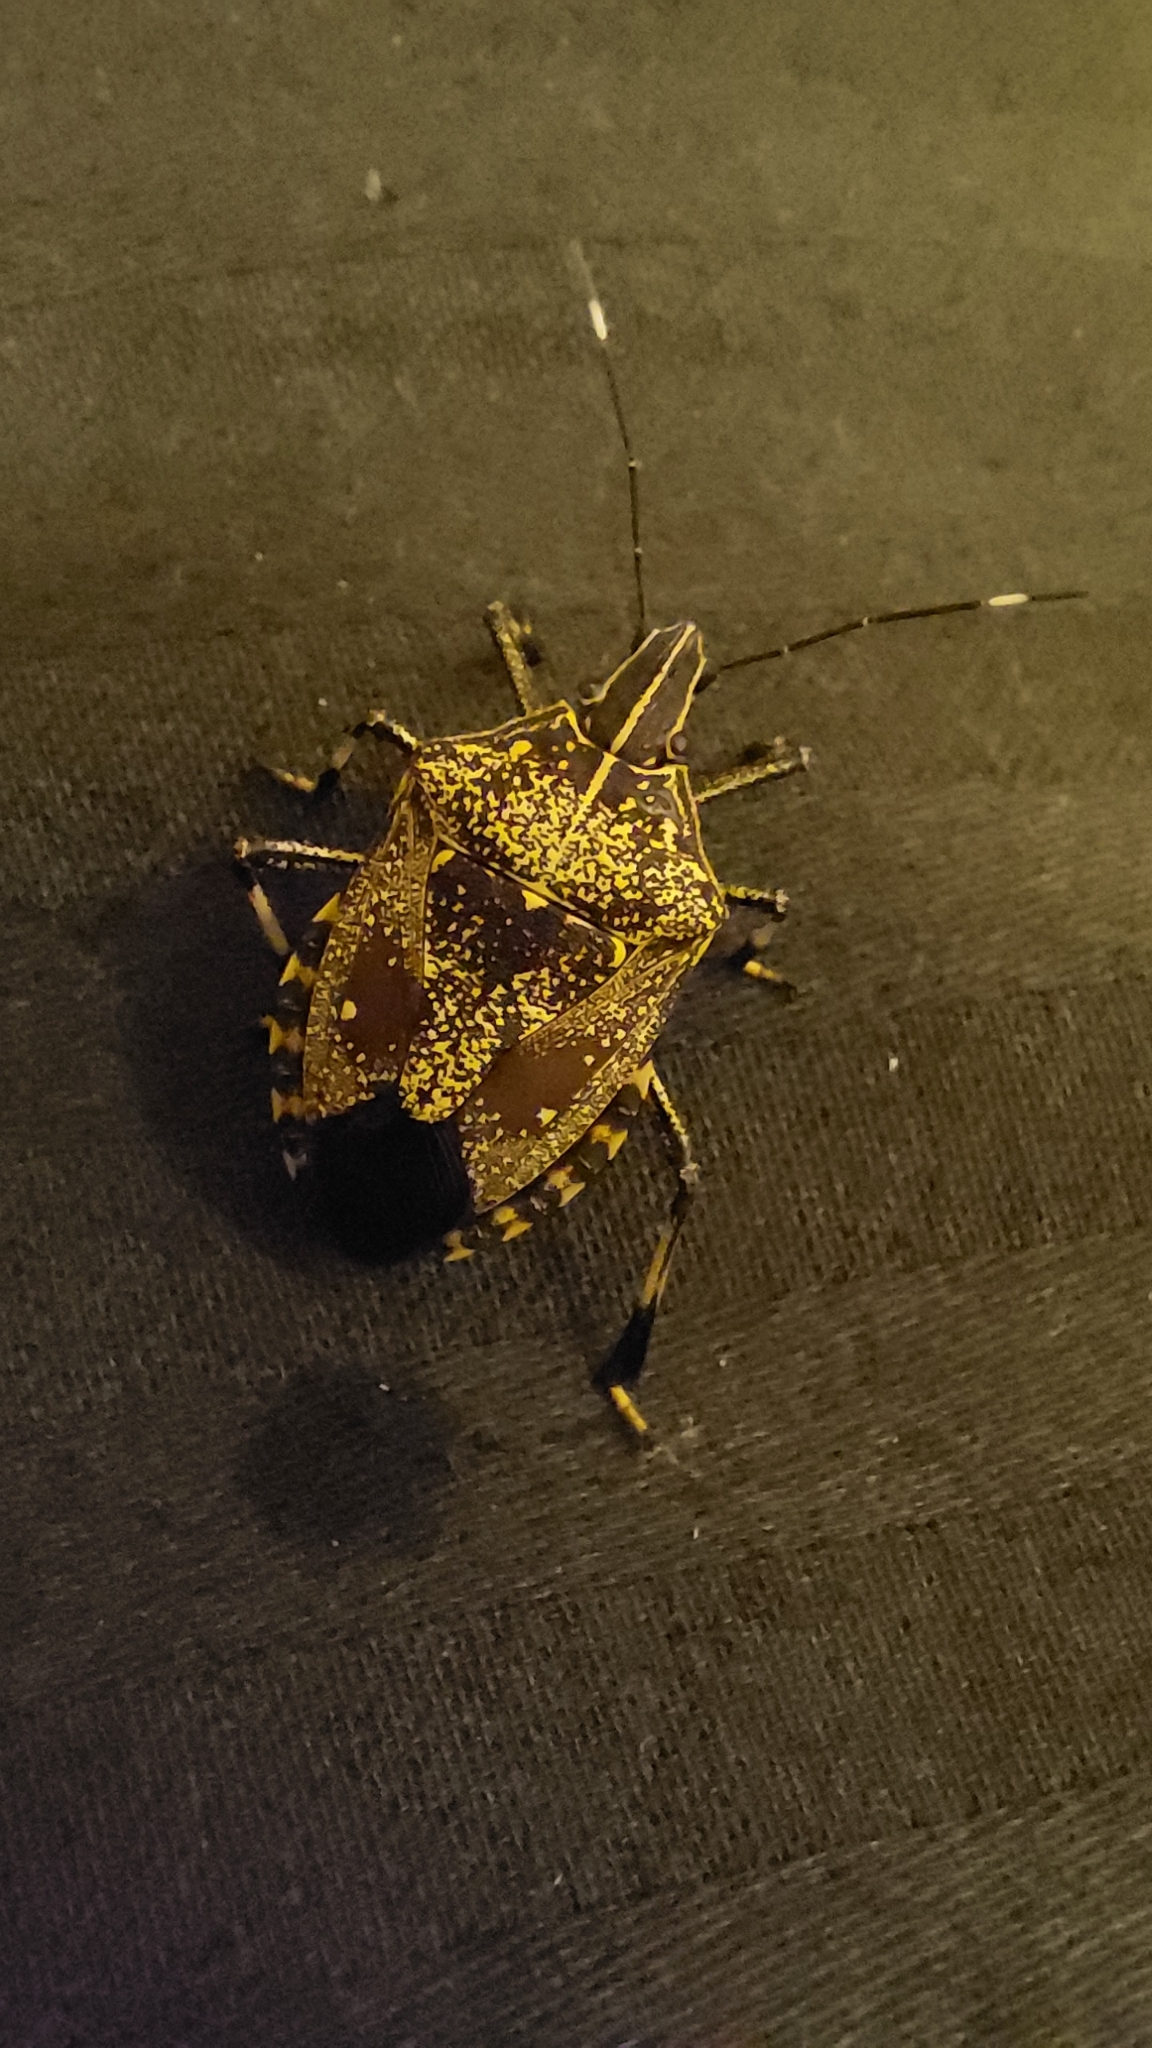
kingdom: Animalia
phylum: Arthropoda
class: Insecta
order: Hemiptera
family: Pentatomidae
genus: Erthesina
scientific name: Erthesina acuminata
